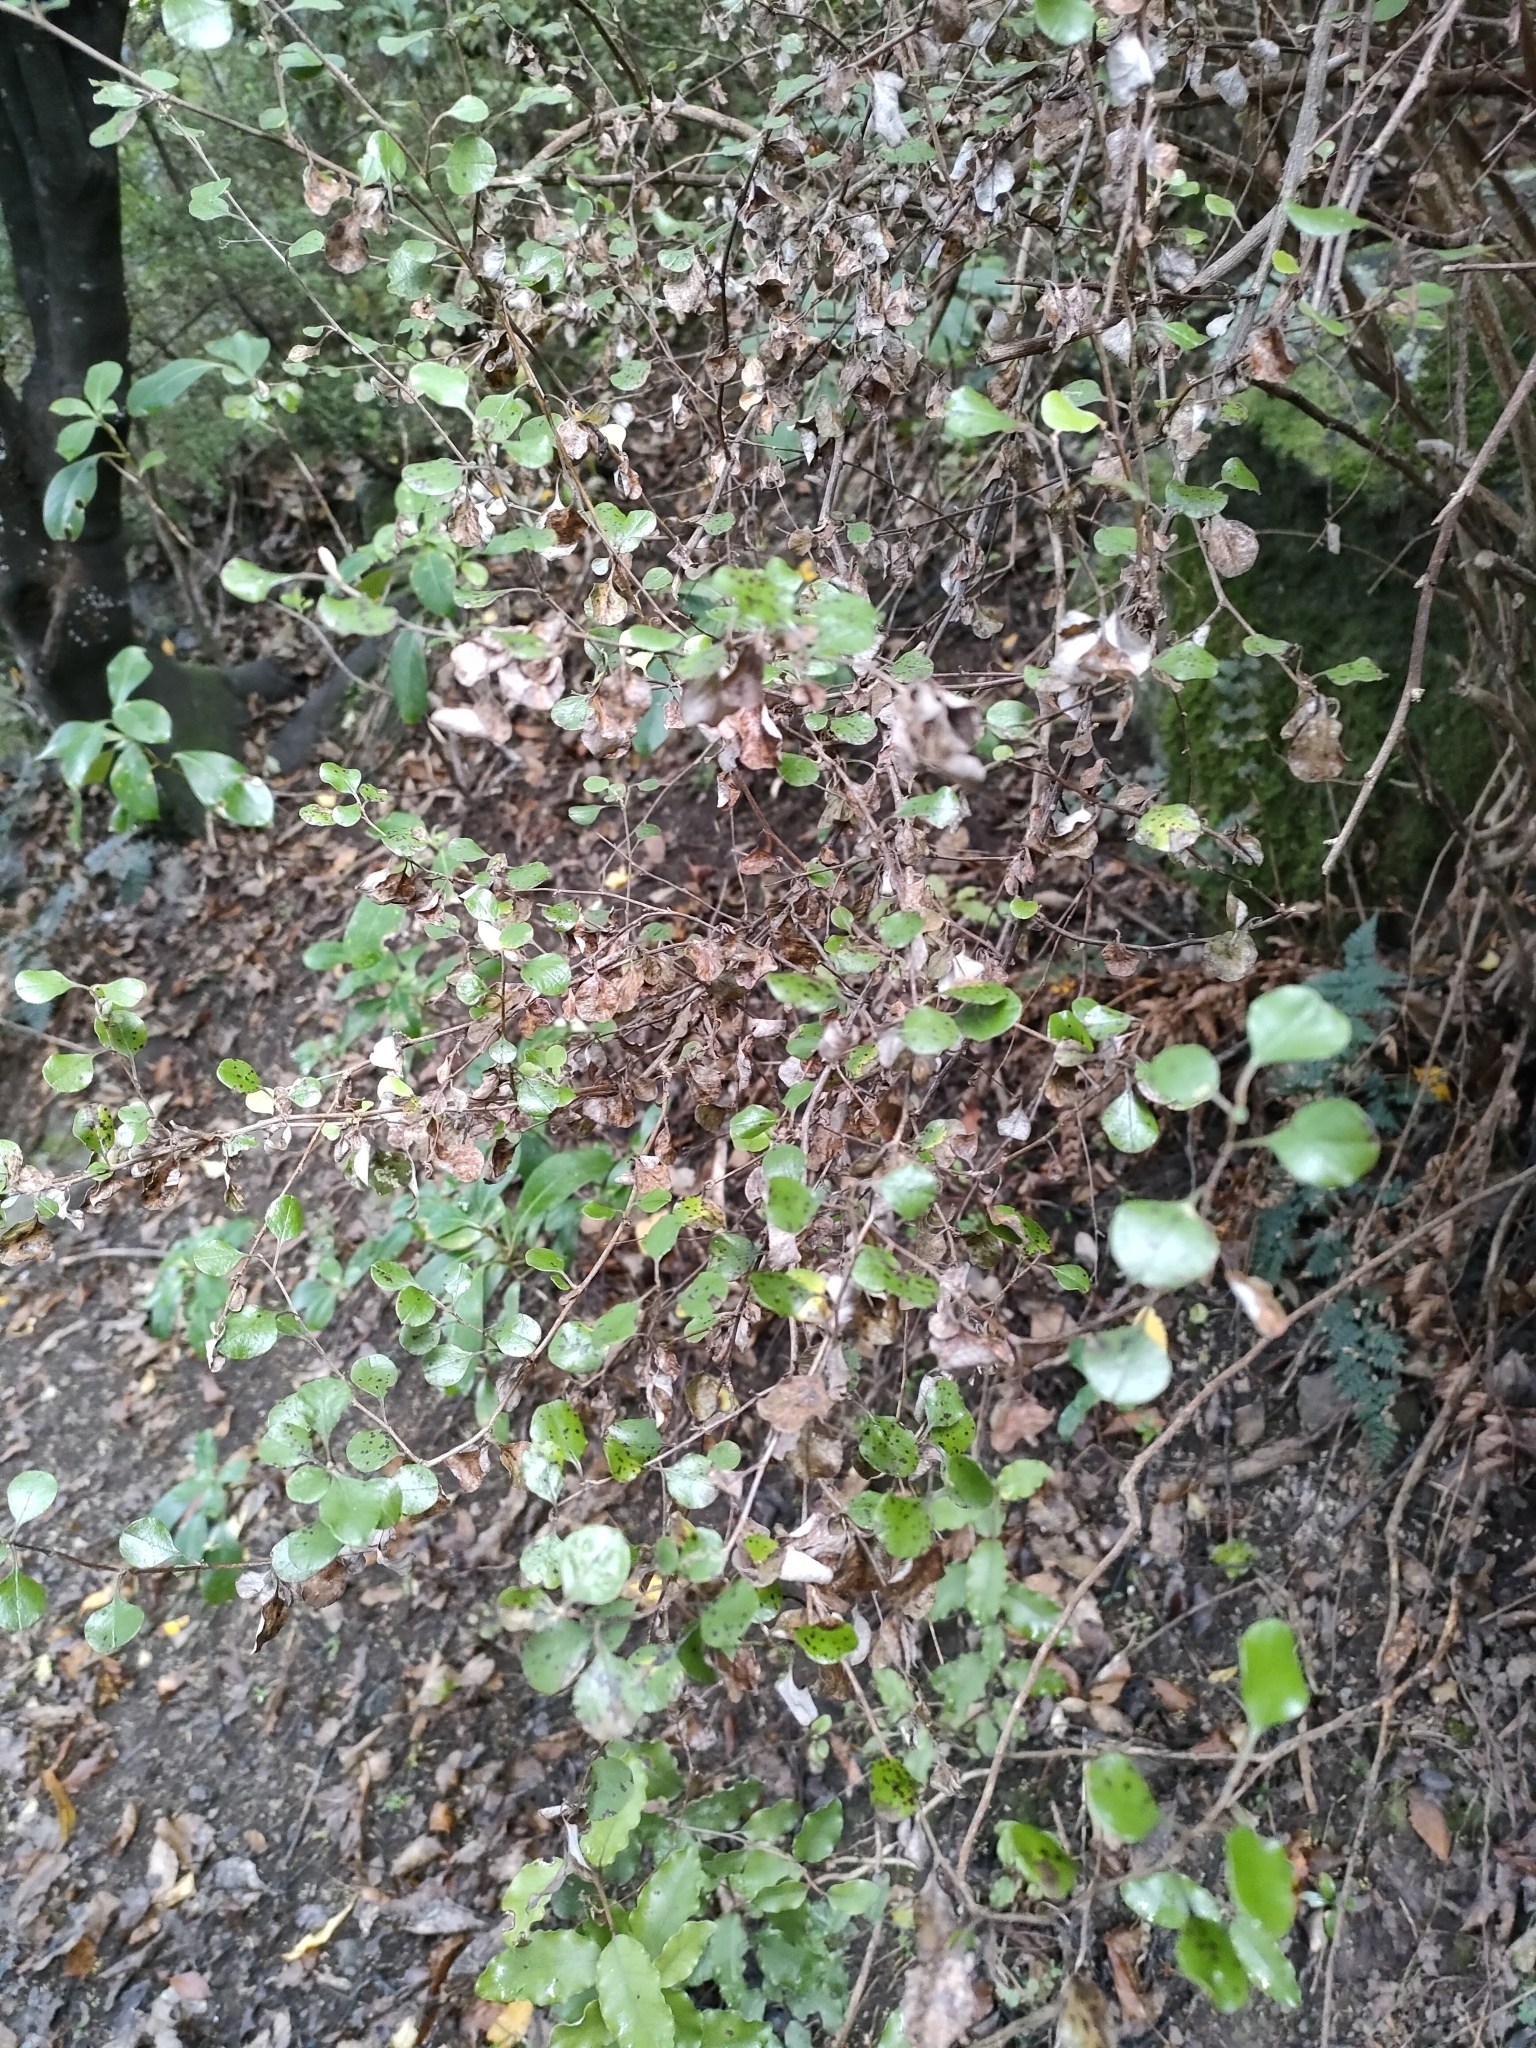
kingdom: Plantae
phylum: Tracheophyta
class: Magnoliopsida
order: Asterales
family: Asteraceae
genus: Ozothamnus
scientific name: Ozothamnus glomeratus
